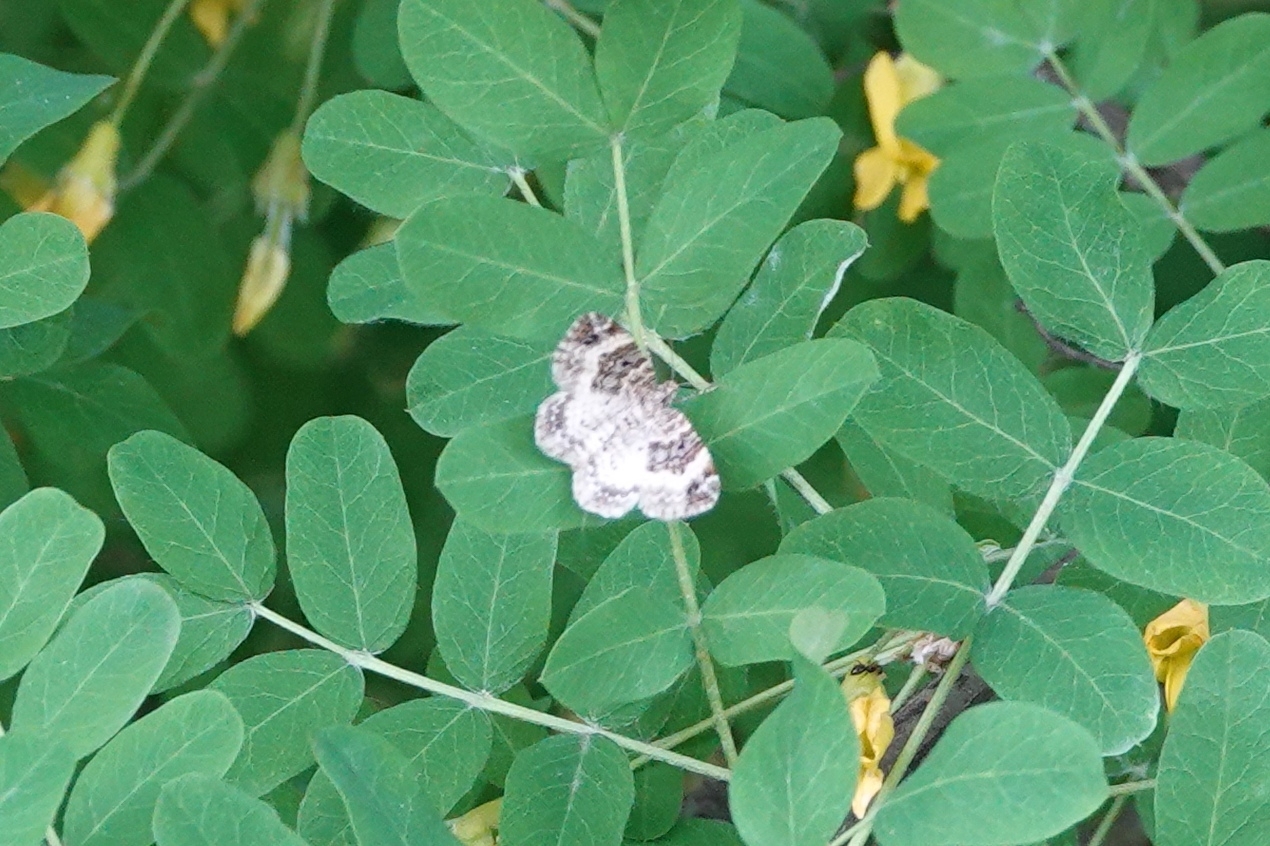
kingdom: Animalia
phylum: Arthropoda
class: Insecta
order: Lepidoptera
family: Geometridae
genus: Epirrhoe
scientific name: Epirrhoe alternata
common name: Common carpet
